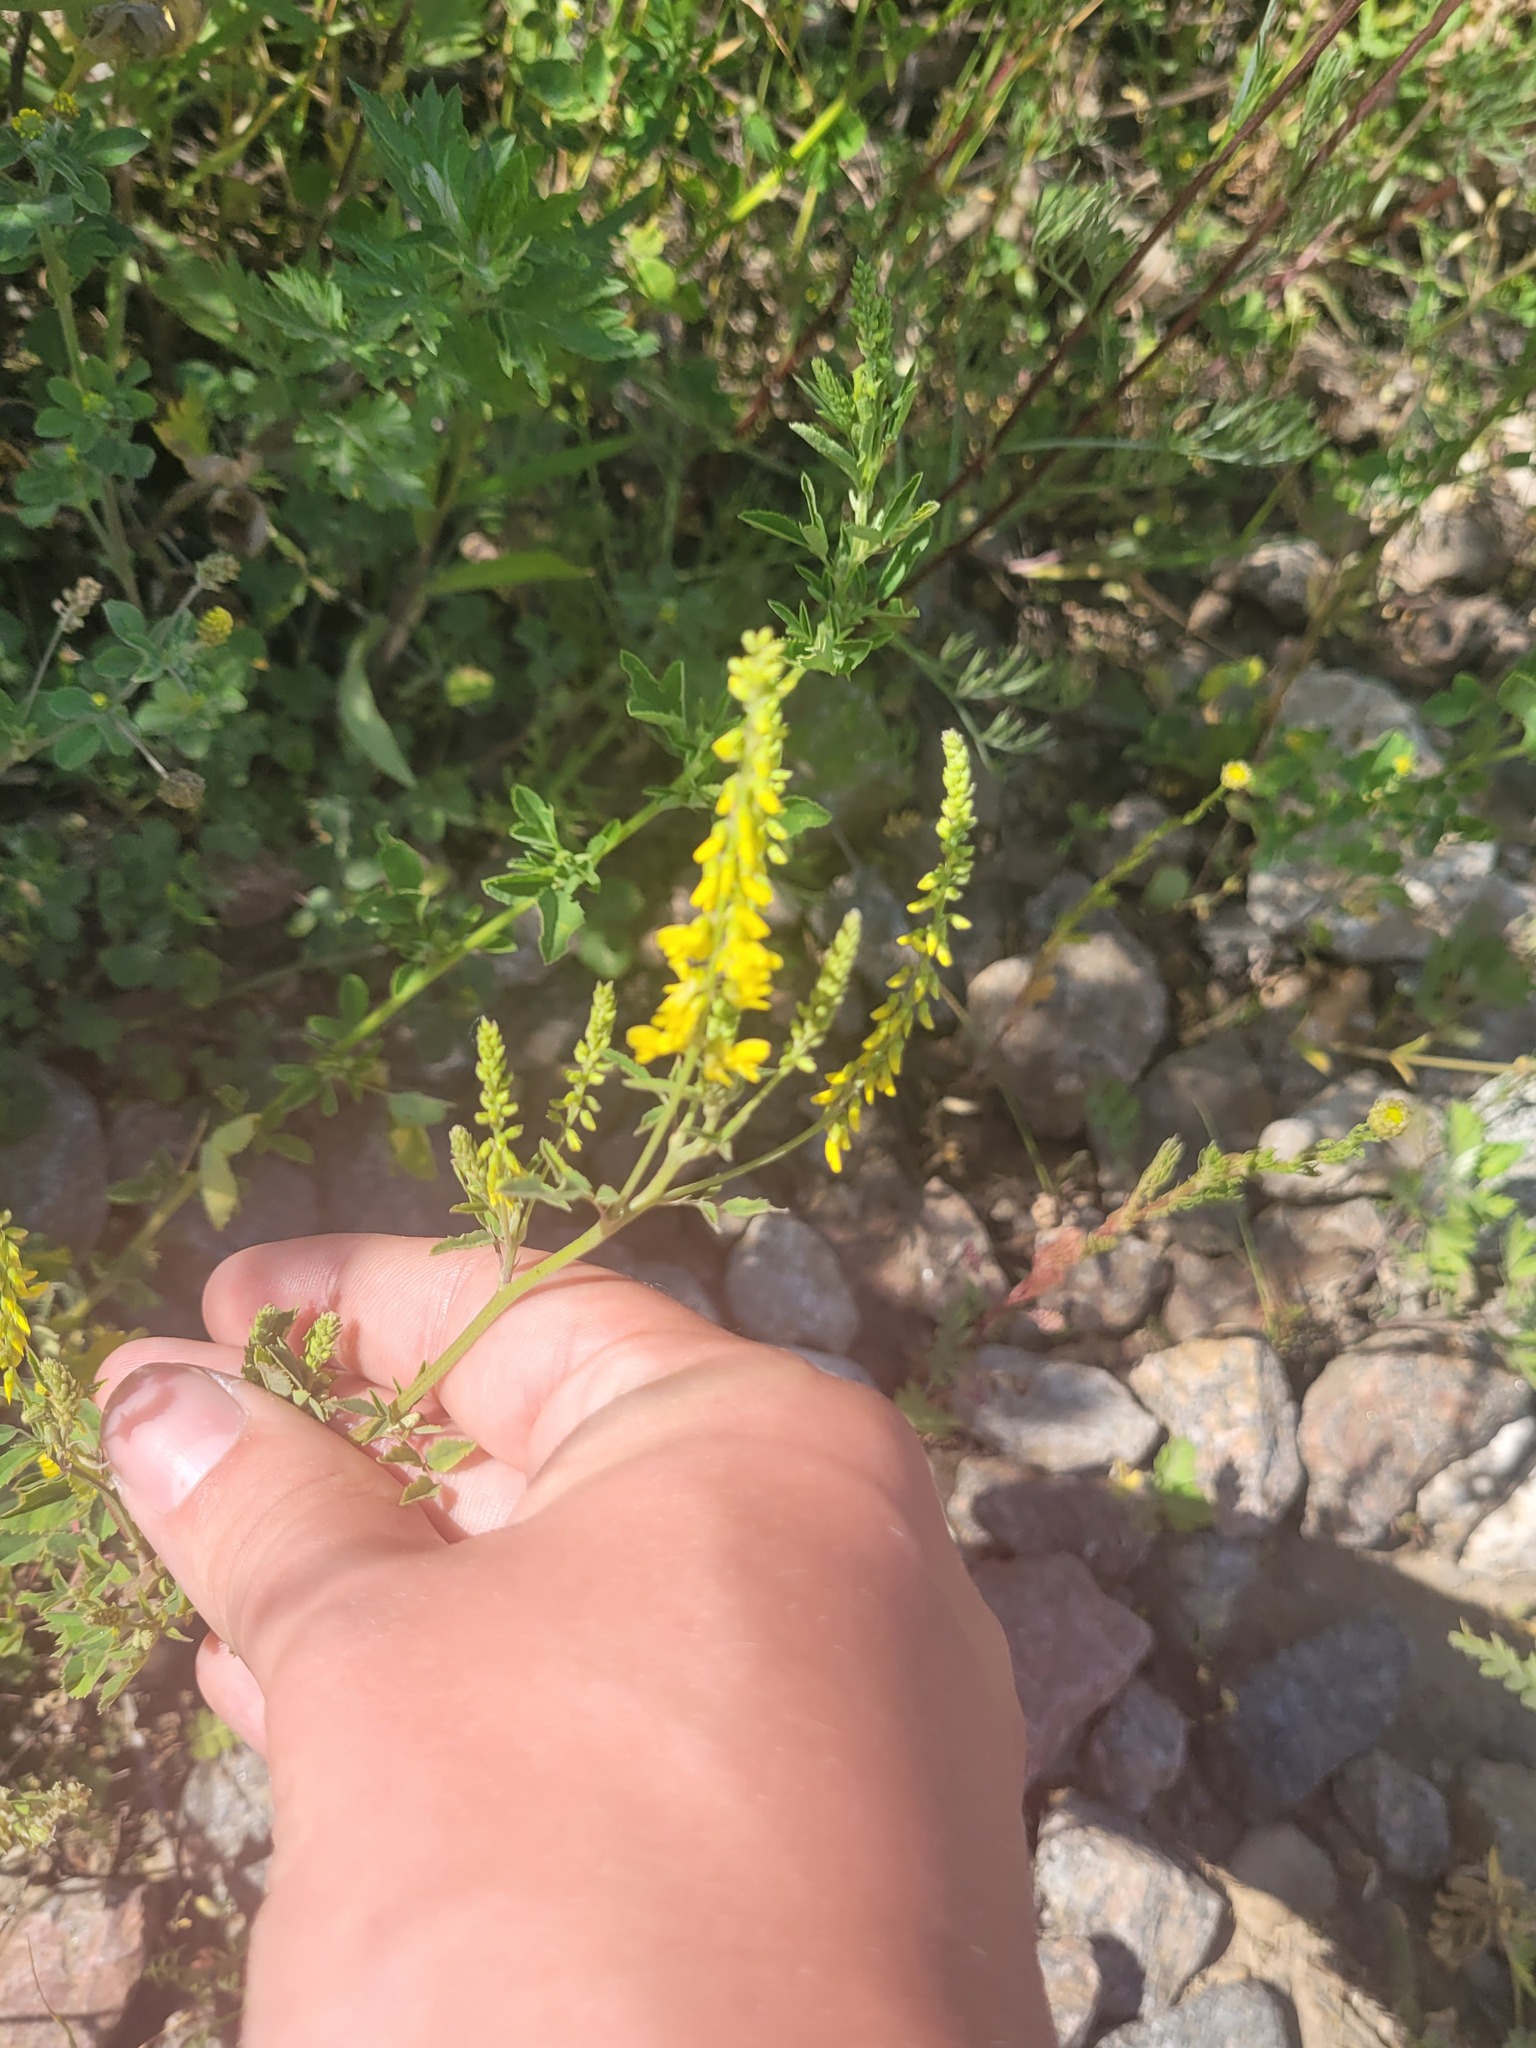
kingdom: Plantae
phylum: Tracheophyta
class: Magnoliopsida
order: Fabales
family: Fabaceae
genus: Melilotus
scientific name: Melilotus officinalis
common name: Sweetclover
